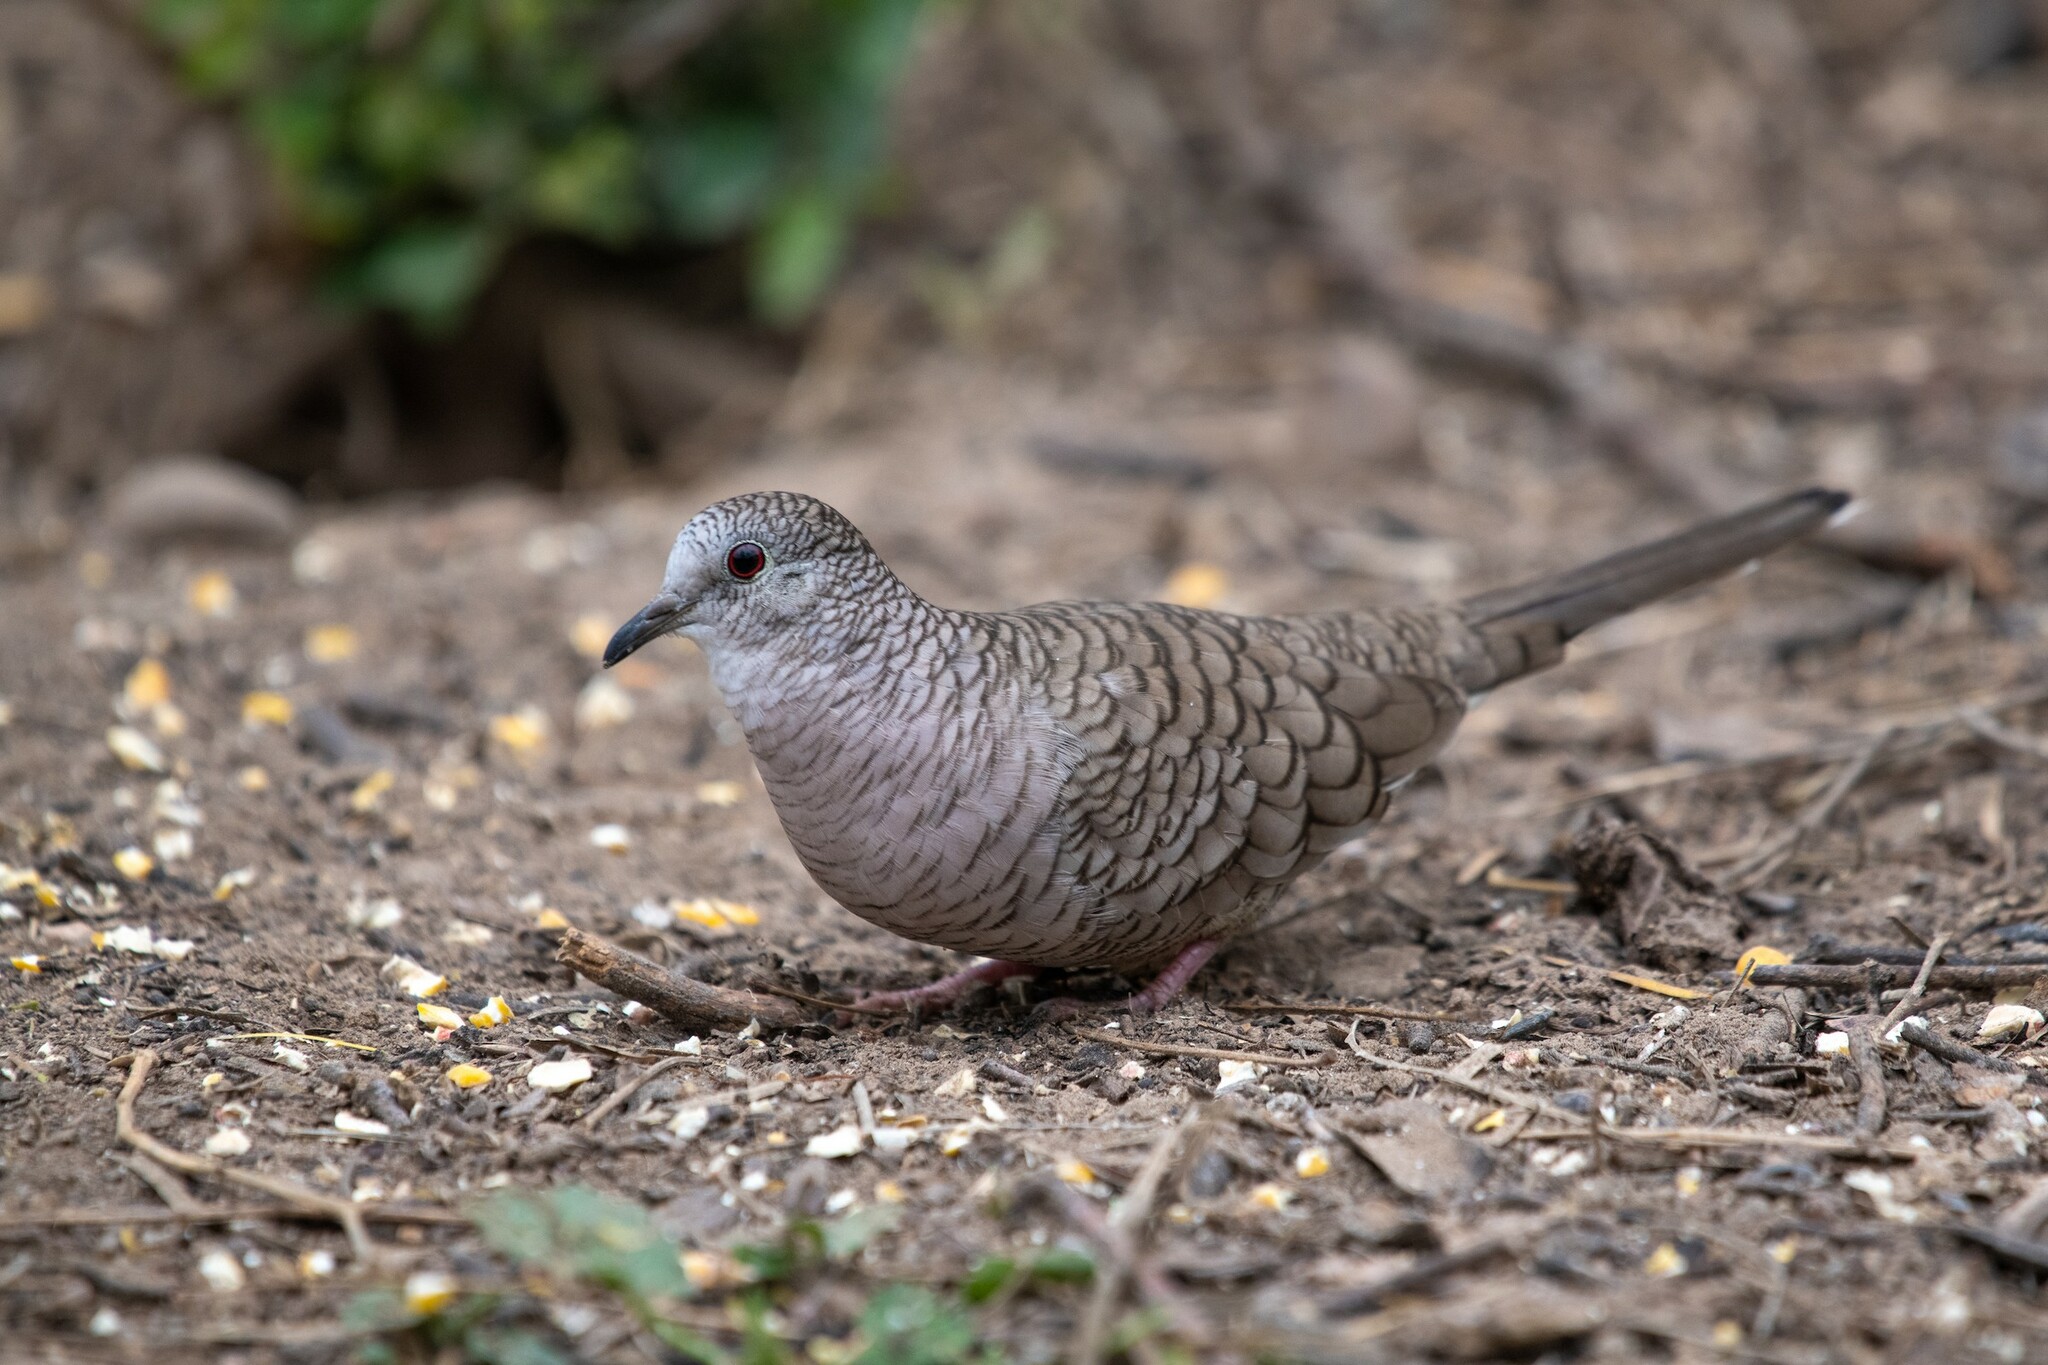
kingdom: Animalia
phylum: Chordata
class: Aves
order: Columbiformes
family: Columbidae
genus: Columbina
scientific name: Columbina inca
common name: Inca dove
